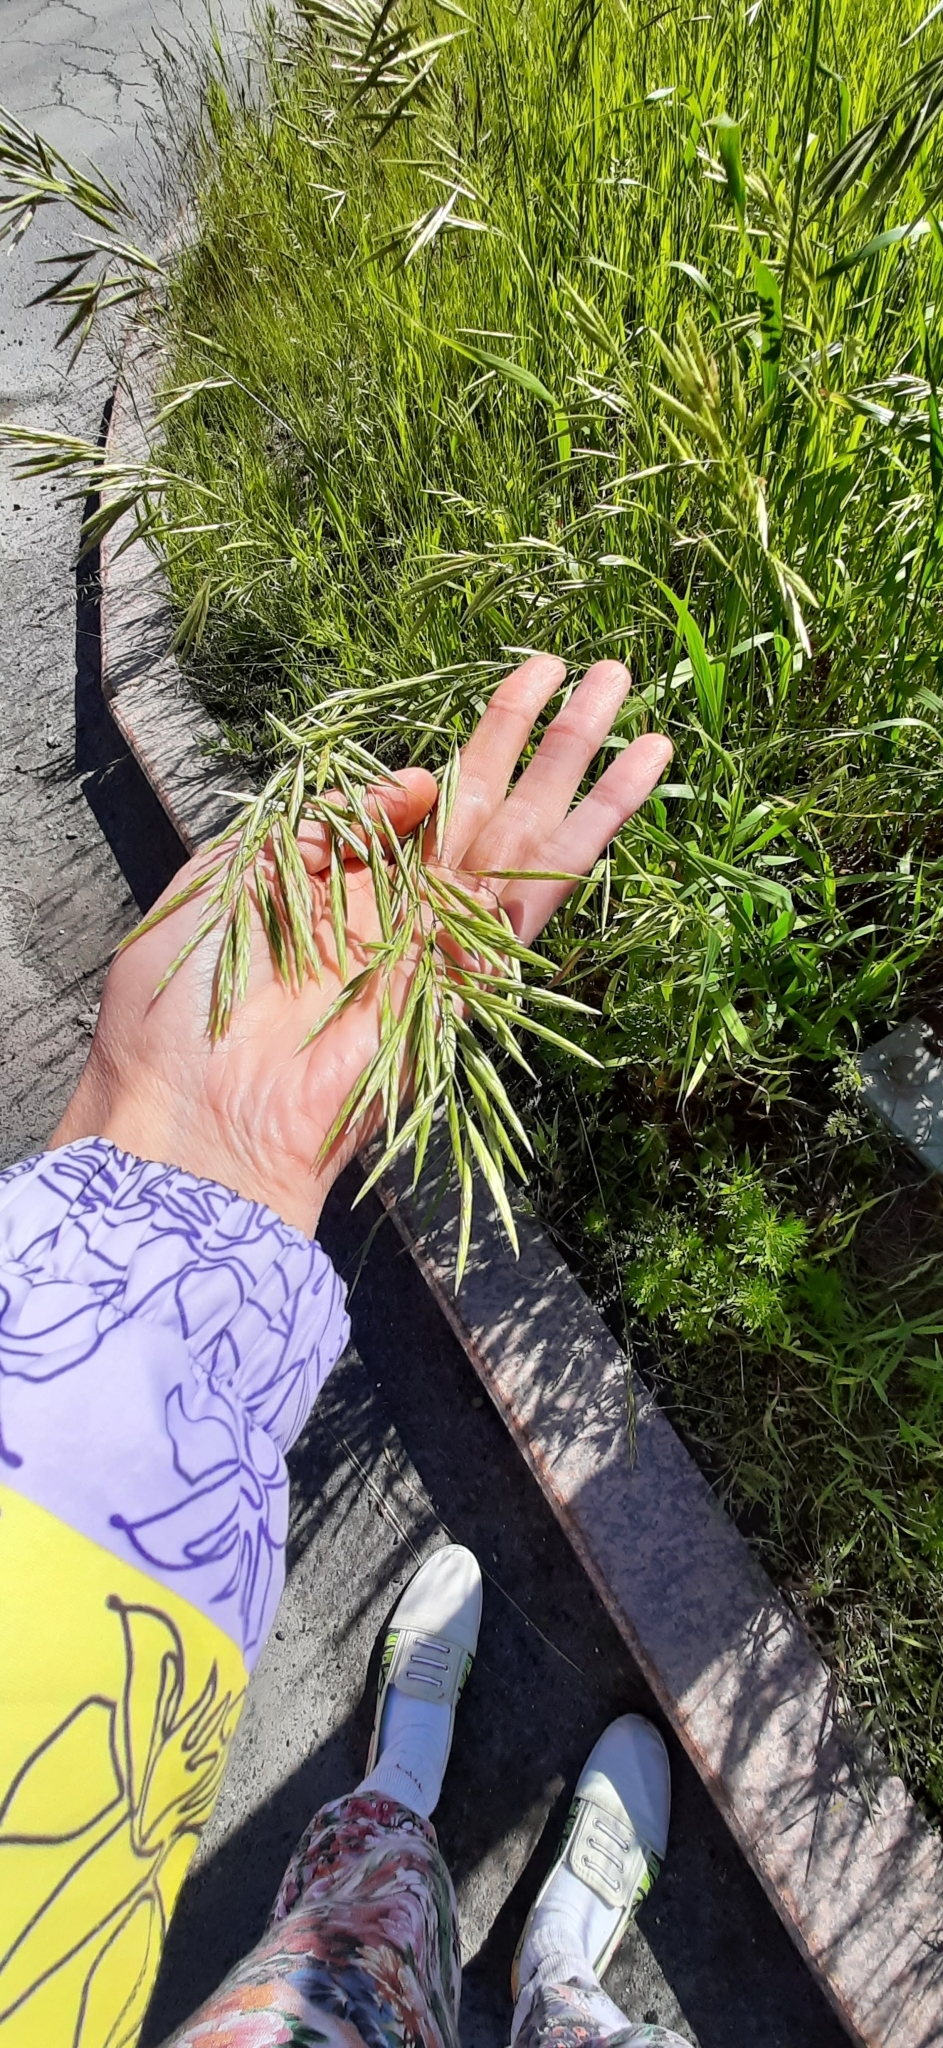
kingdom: Plantae
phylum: Tracheophyta
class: Liliopsida
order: Poales
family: Poaceae
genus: Bromus
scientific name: Bromus inermis
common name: Smooth brome
